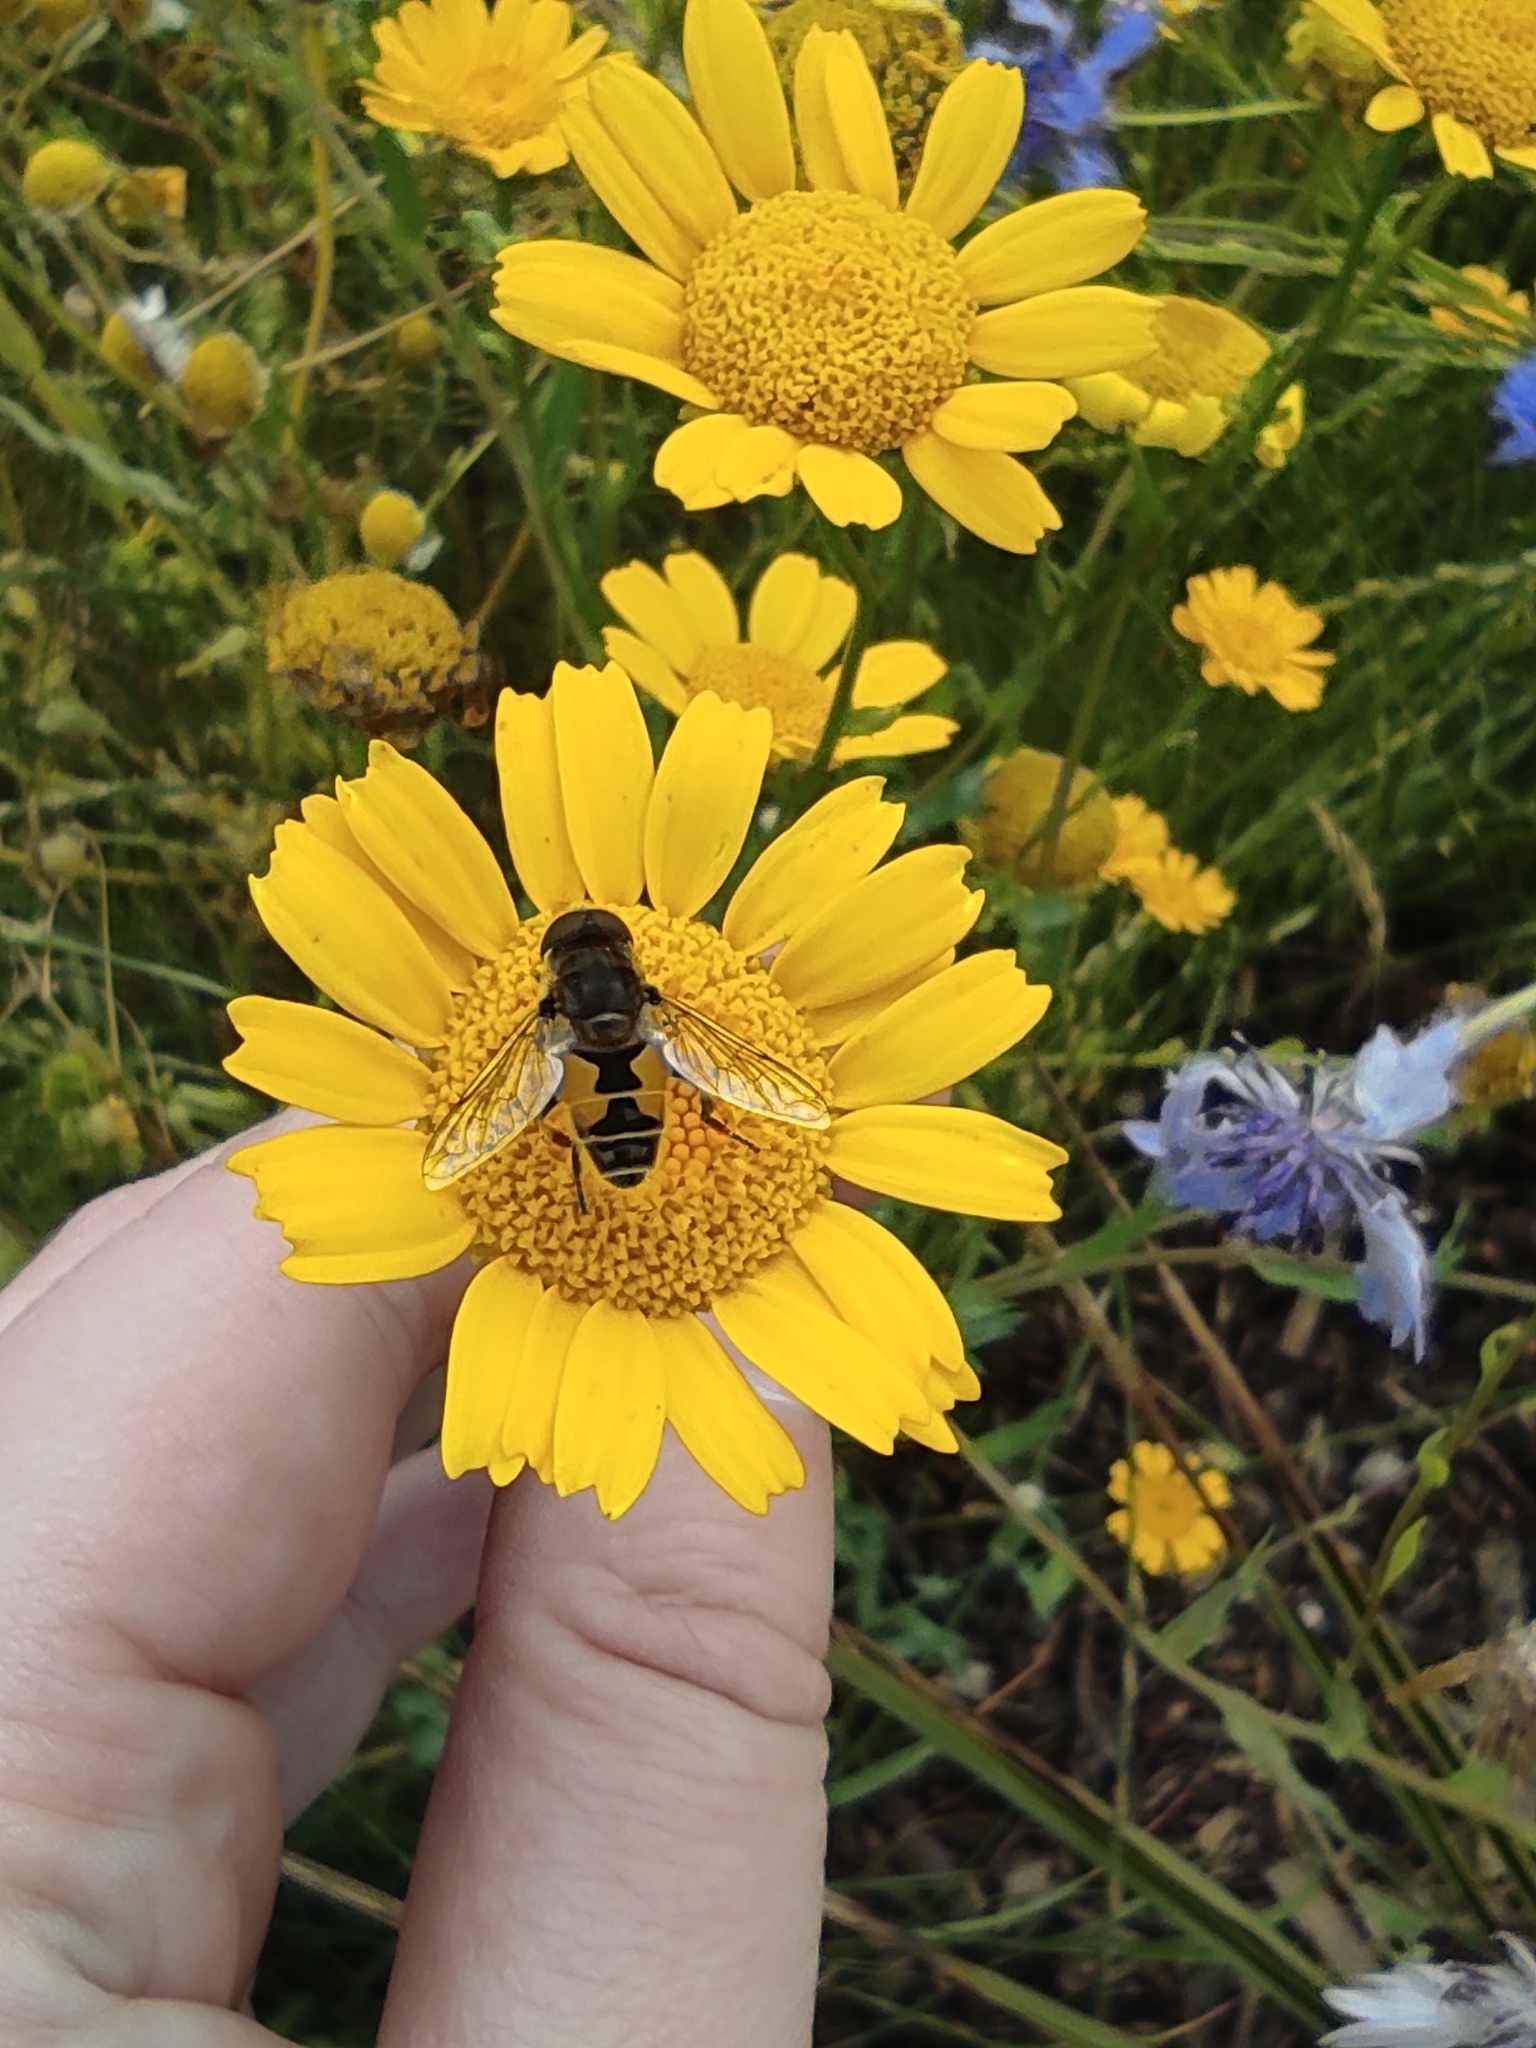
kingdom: Animalia
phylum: Arthropoda
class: Insecta
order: Diptera
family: Syrphidae
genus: Eristalis
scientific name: Eristalis arbustorum
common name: Hover fly
